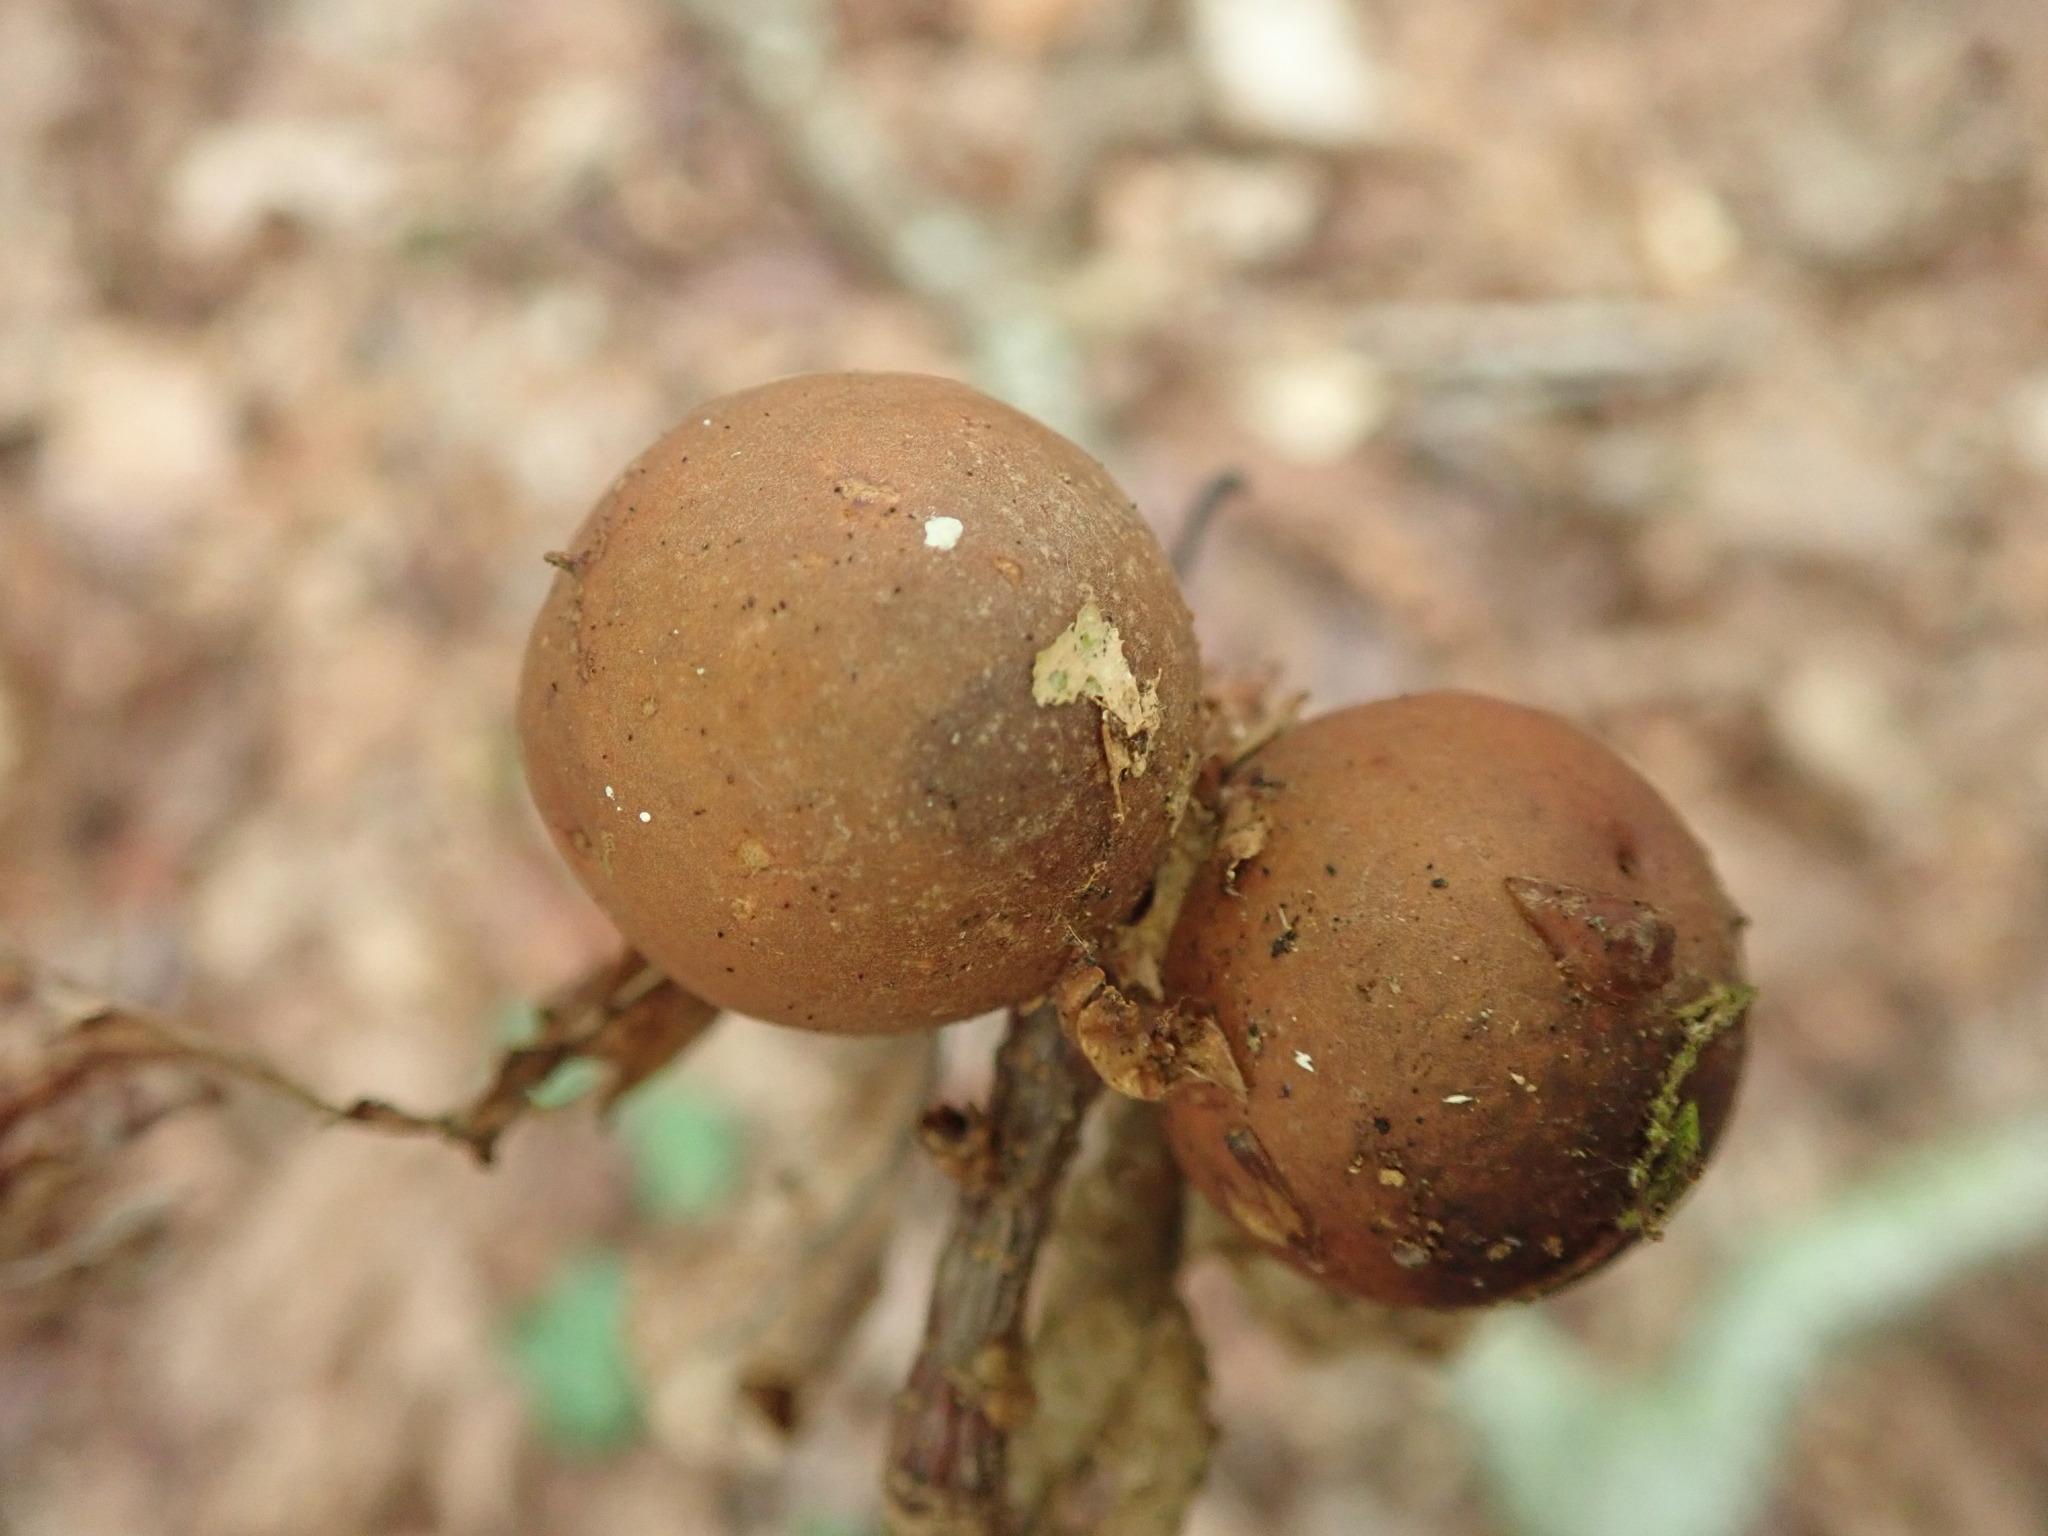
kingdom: Animalia
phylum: Arthropoda
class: Insecta
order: Hymenoptera
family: Cynipidae
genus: Andricus
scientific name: Andricus kollari
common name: Marble gall
